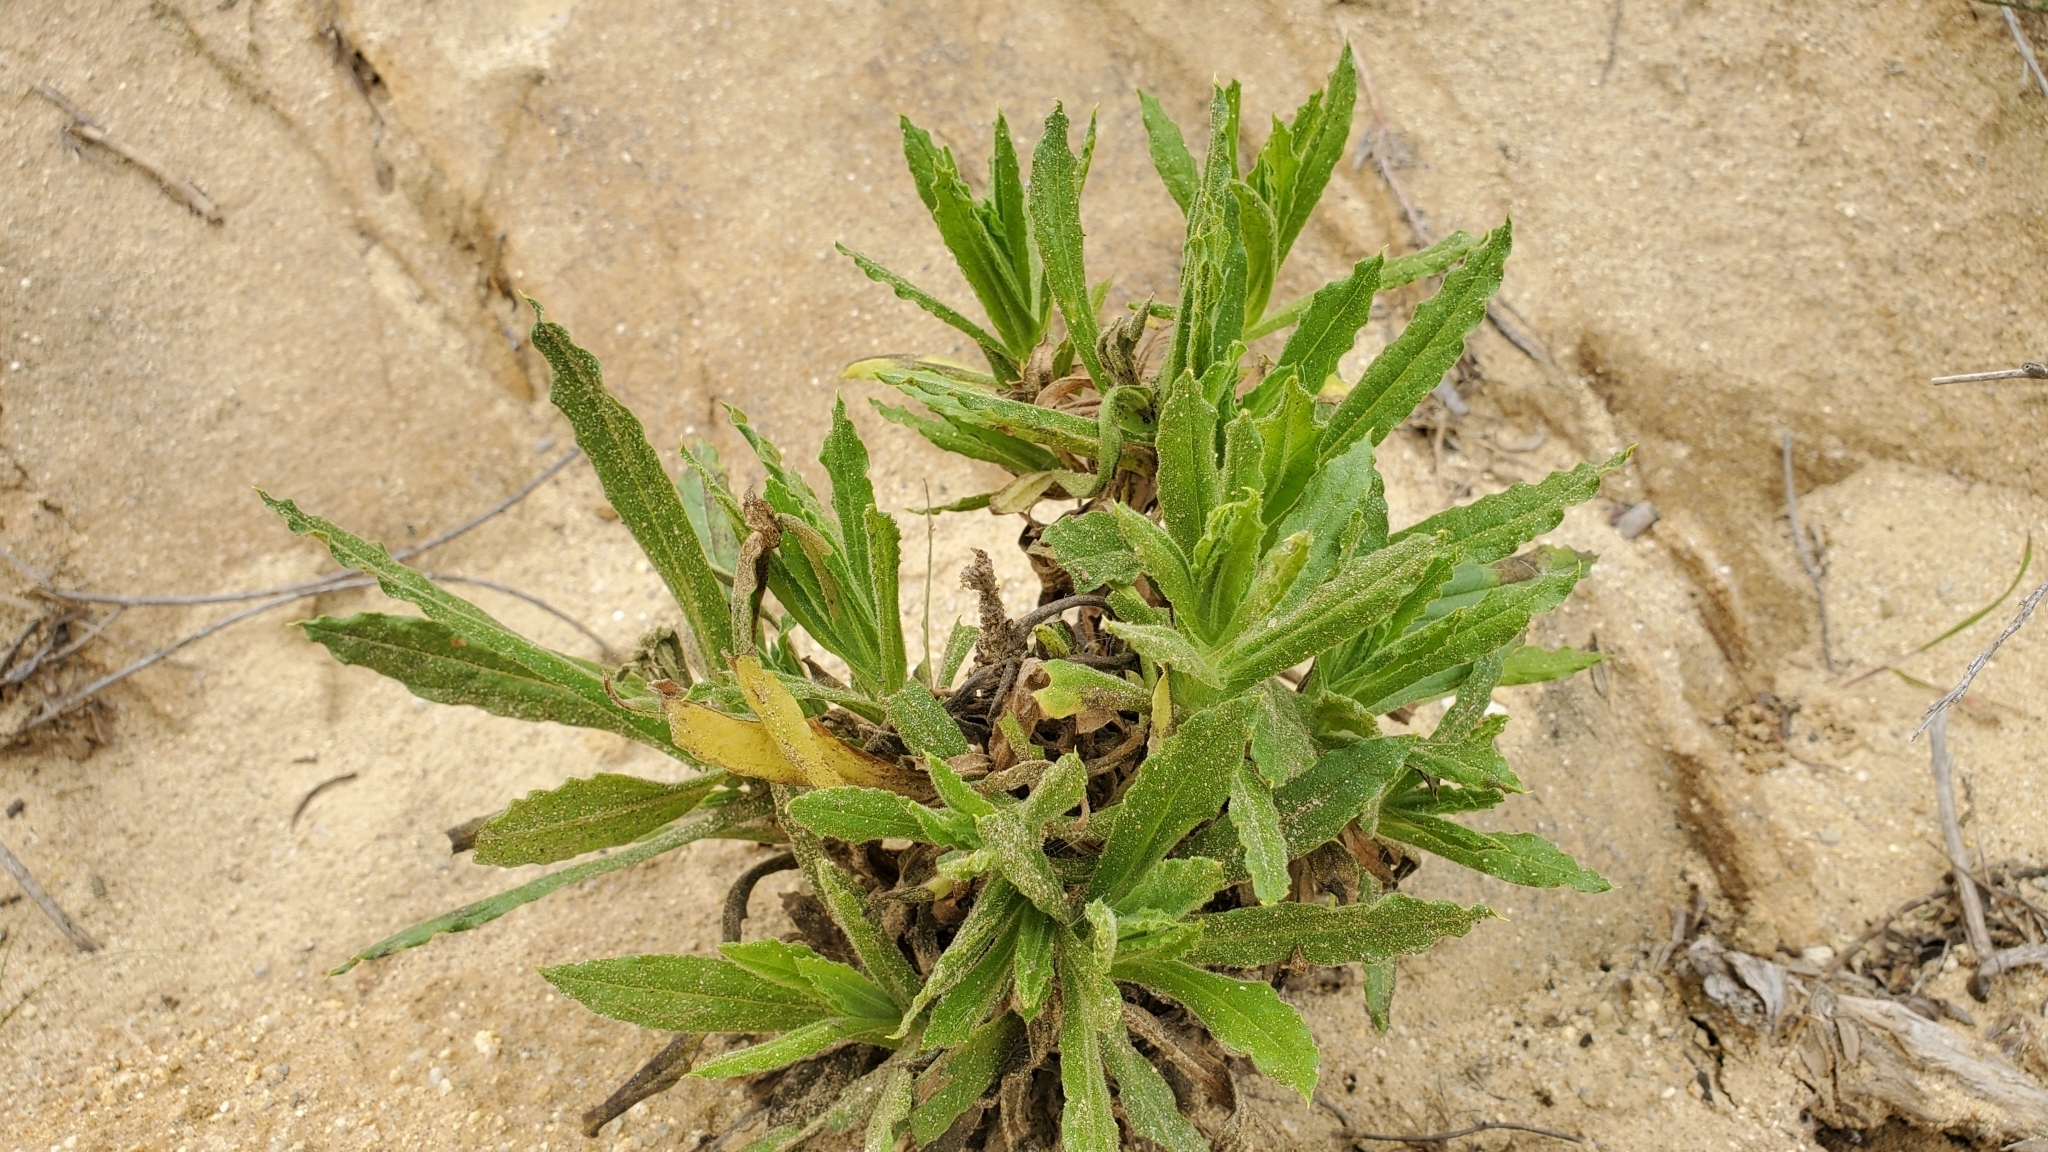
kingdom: Plantae
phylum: Tracheophyta
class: Magnoliopsida
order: Asterales
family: Asteraceae
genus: Pseudognaphalium
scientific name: Pseudognaphalium californicum
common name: California rabbit-tobacco
